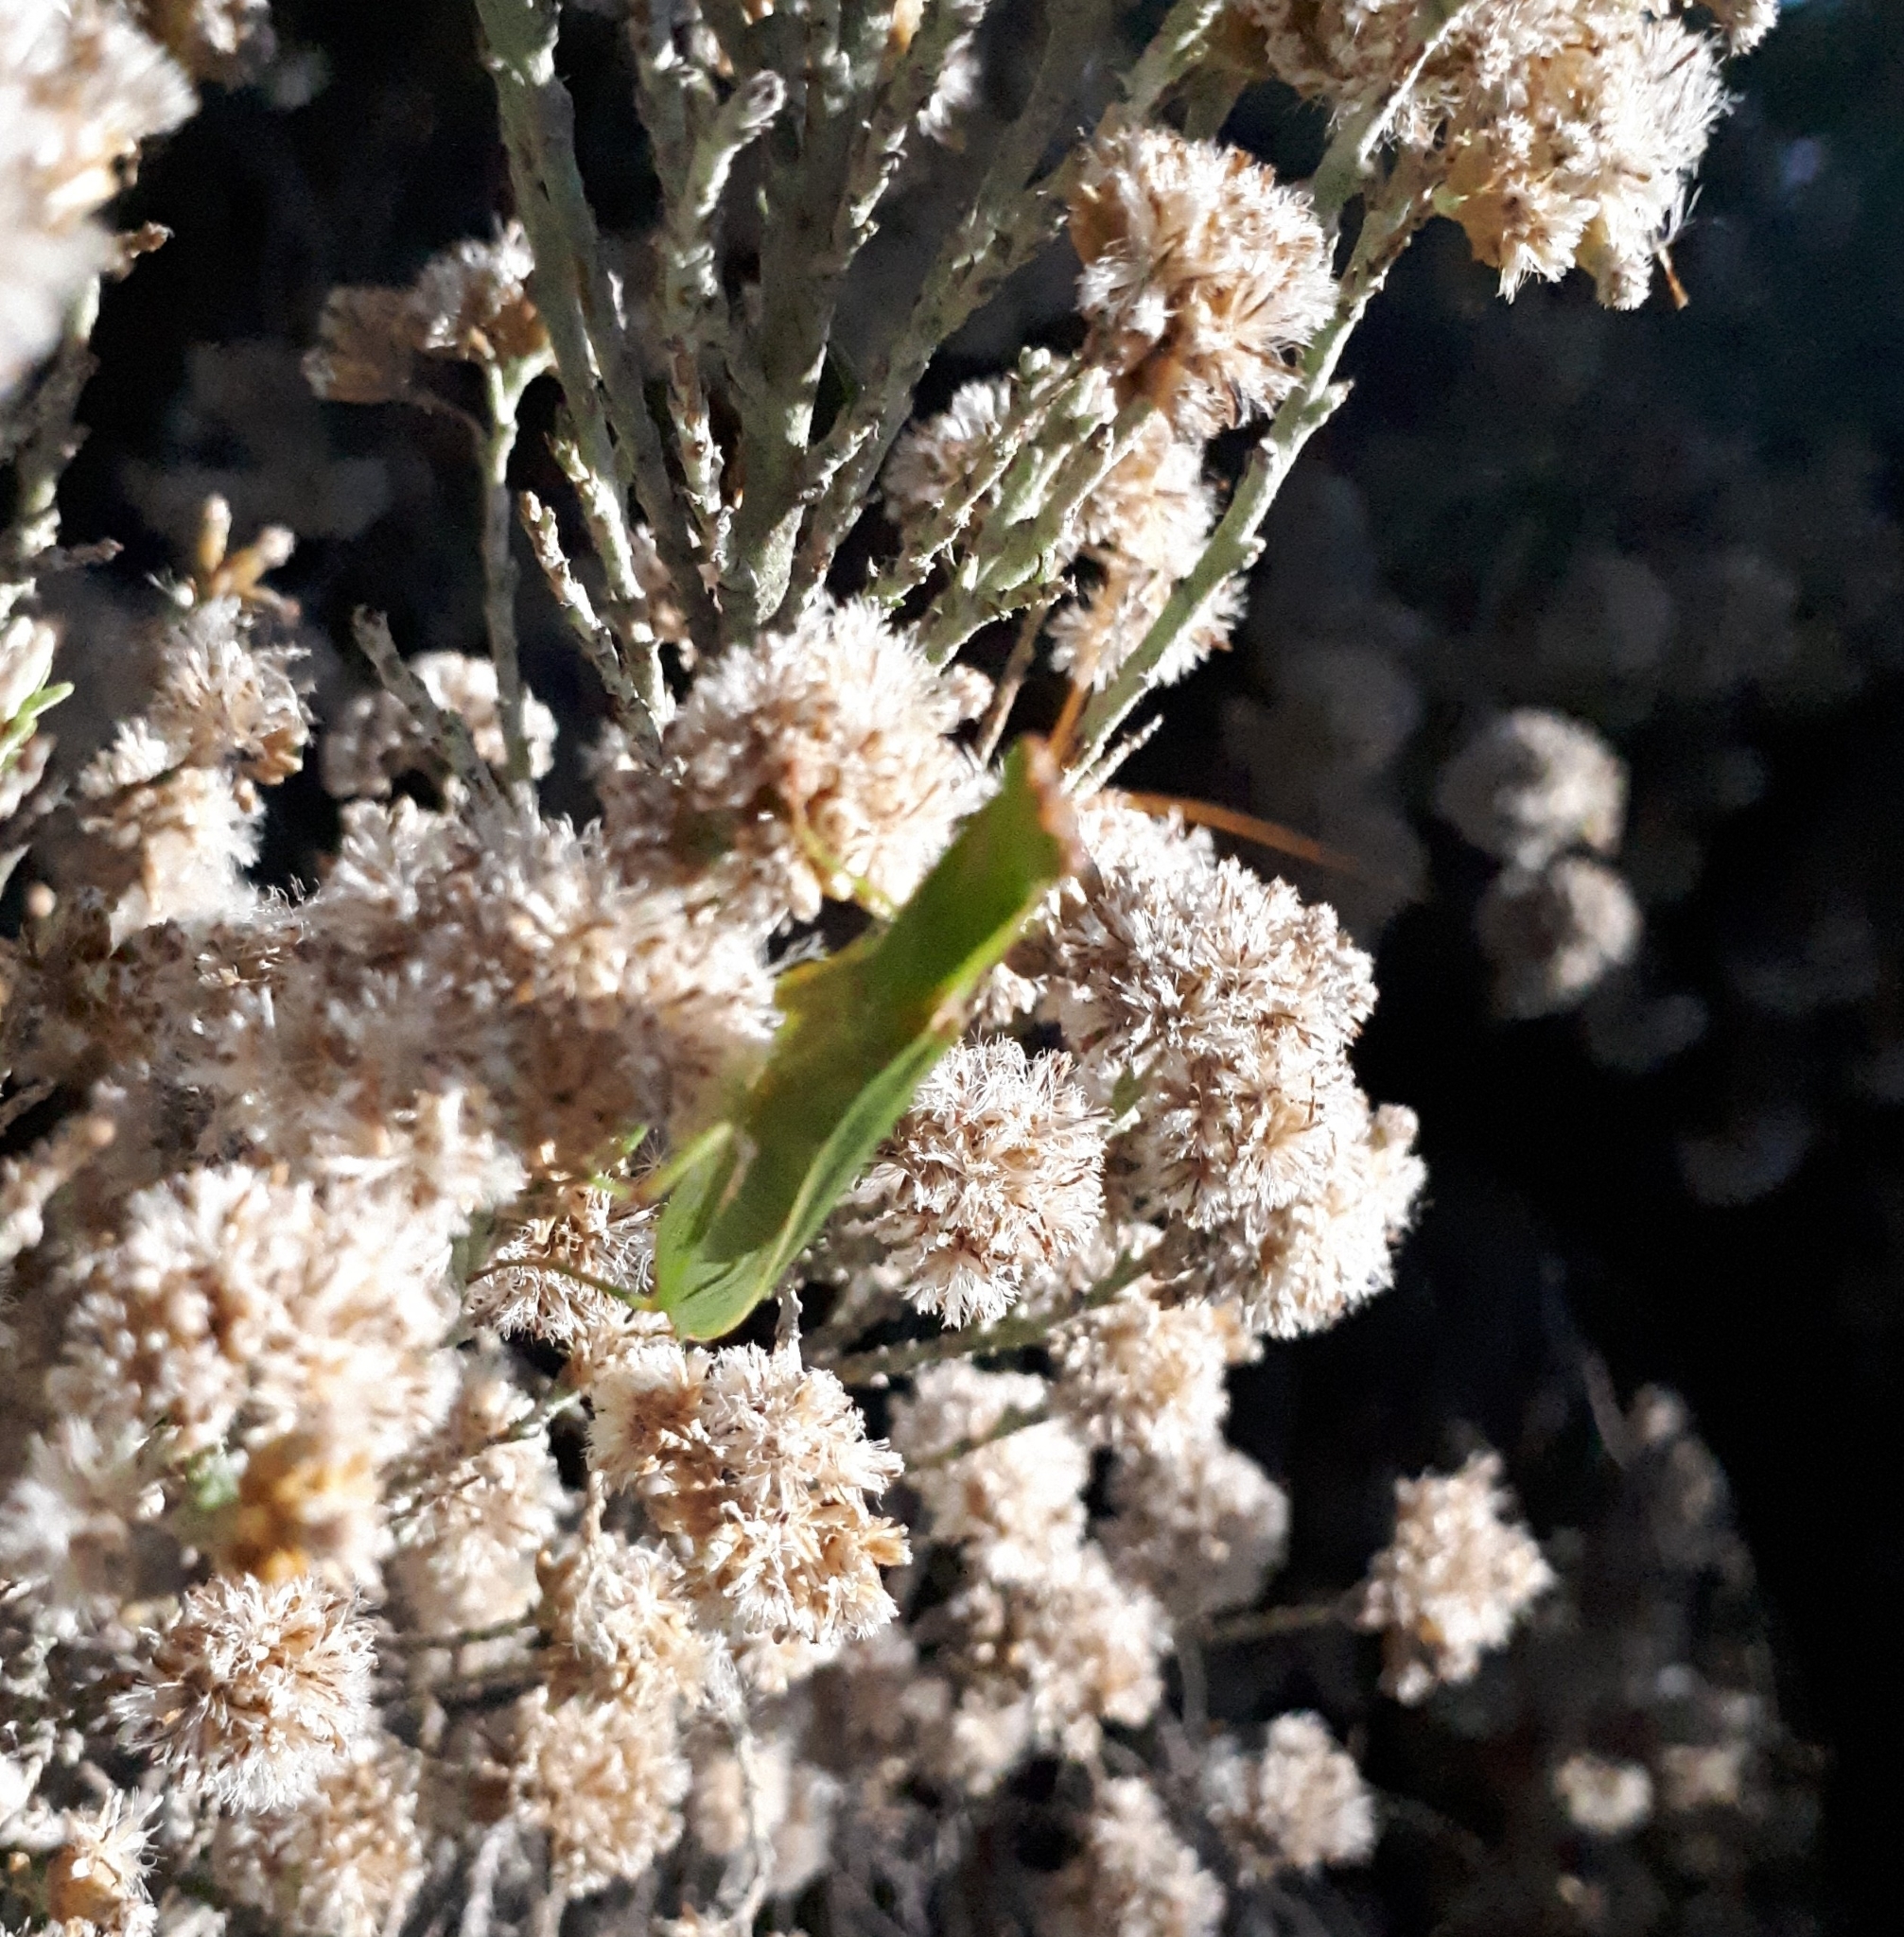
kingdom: Animalia
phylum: Arthropoda
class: Insecta
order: Mantodea
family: Mantidae
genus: Orthodera
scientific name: Orthodera novaezealandiae
